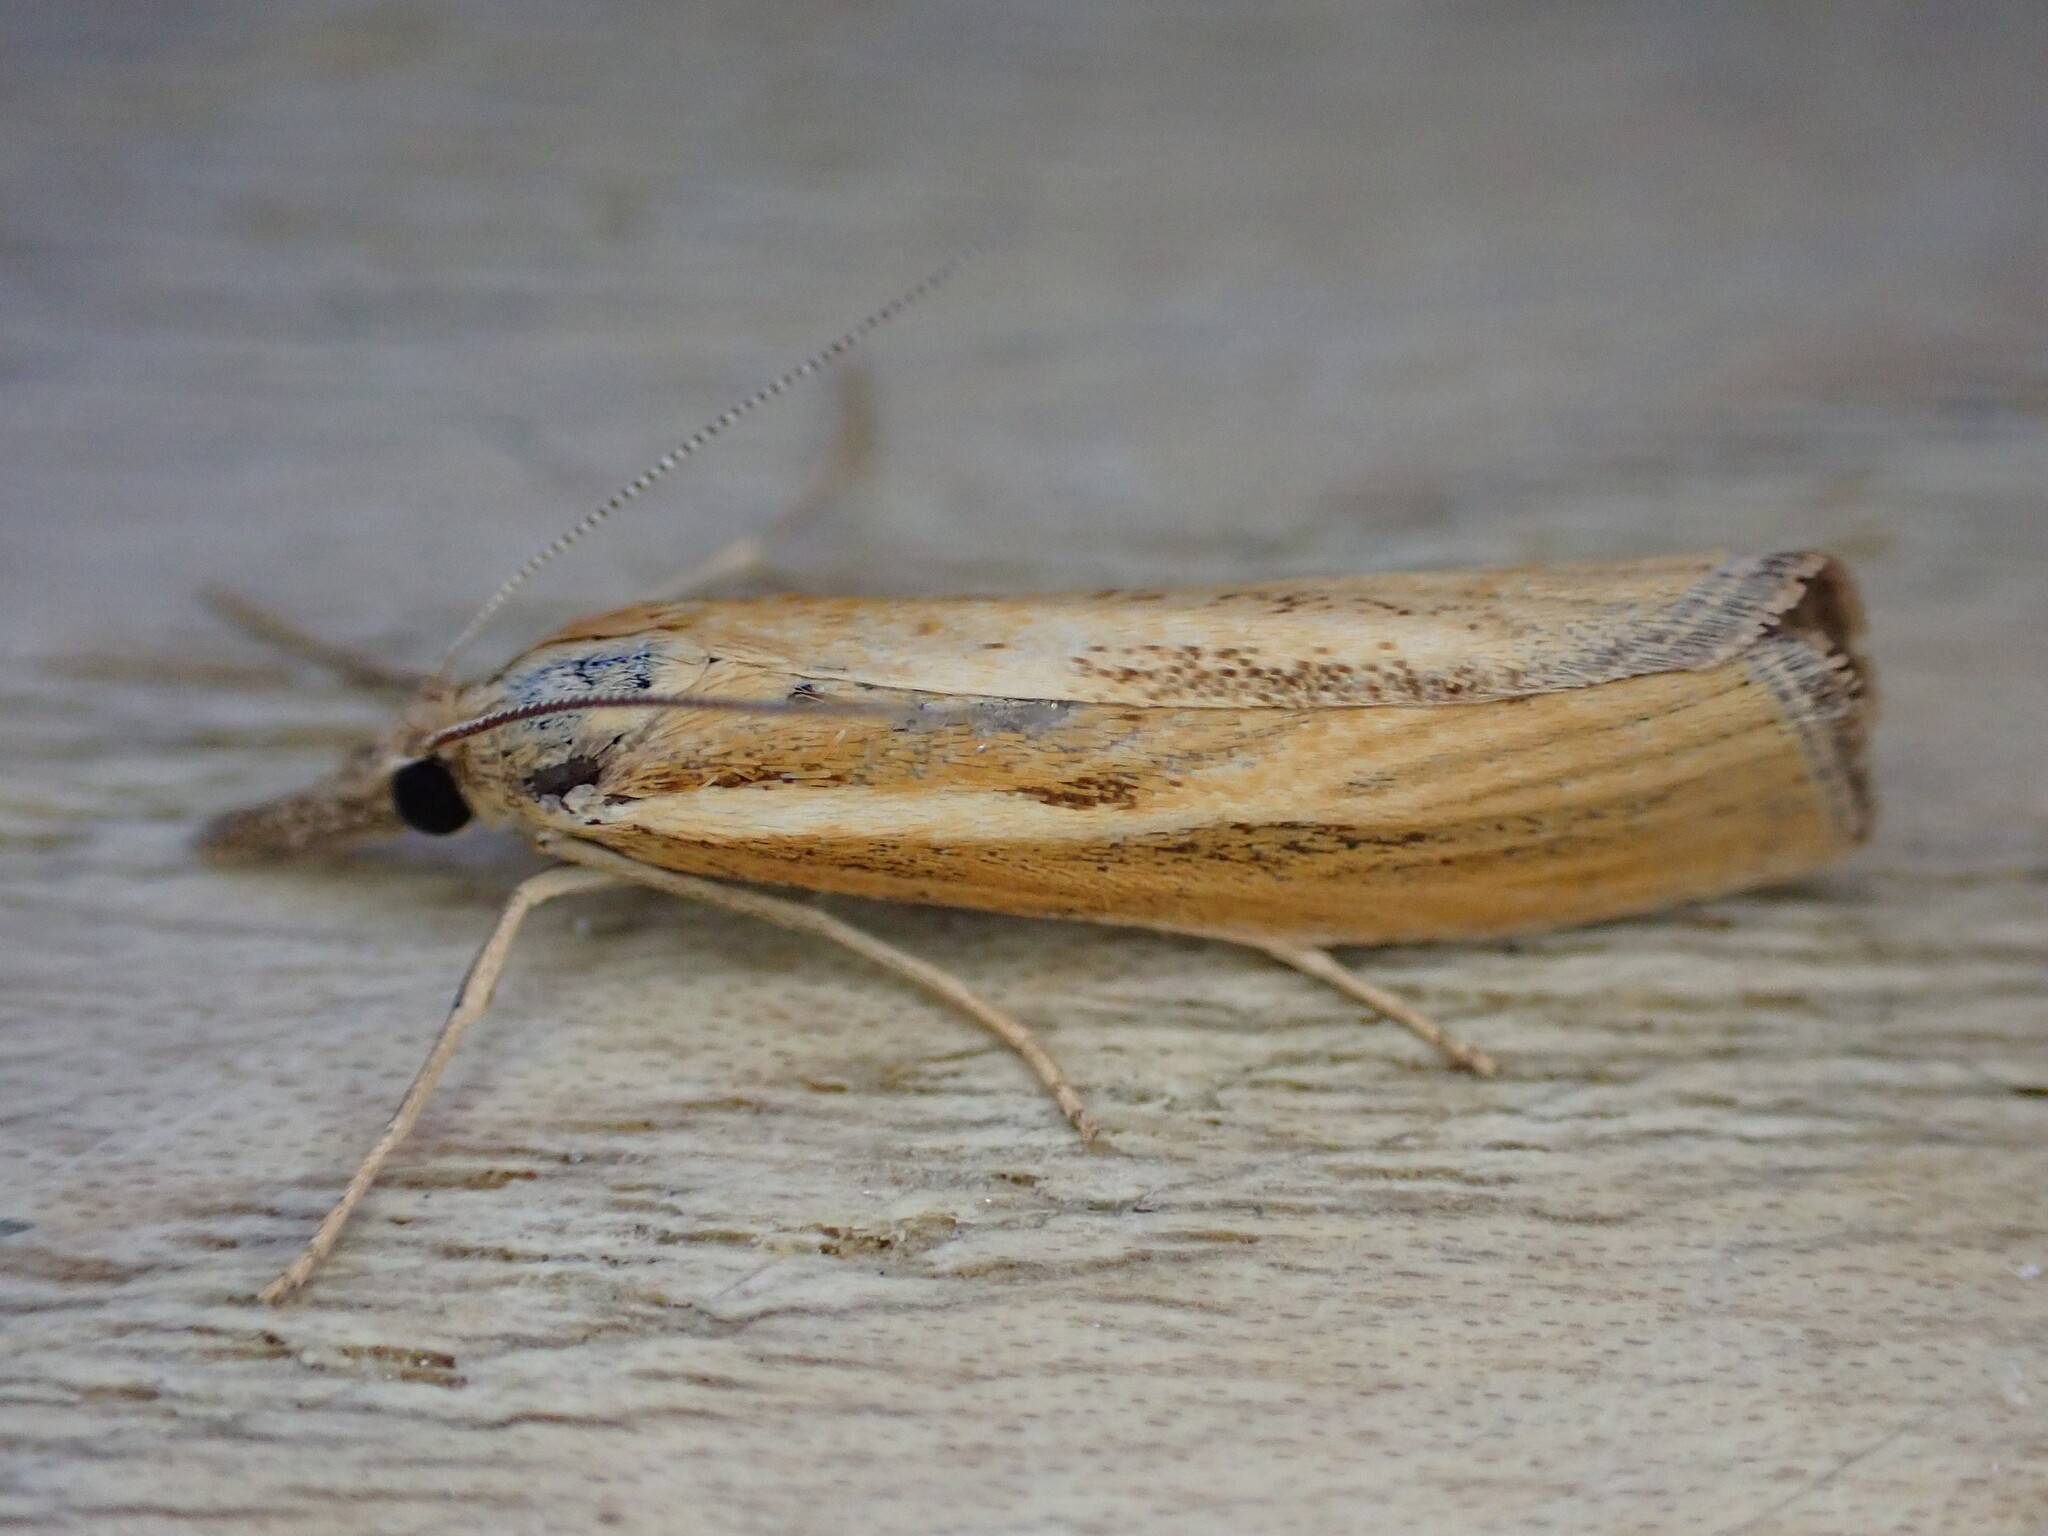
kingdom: Animalia
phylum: Arthropoda
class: Insecta
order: Lepidoptera
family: Crambidae
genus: Agriphila
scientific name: Agriphila tristellus
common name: Common grass-veneer
